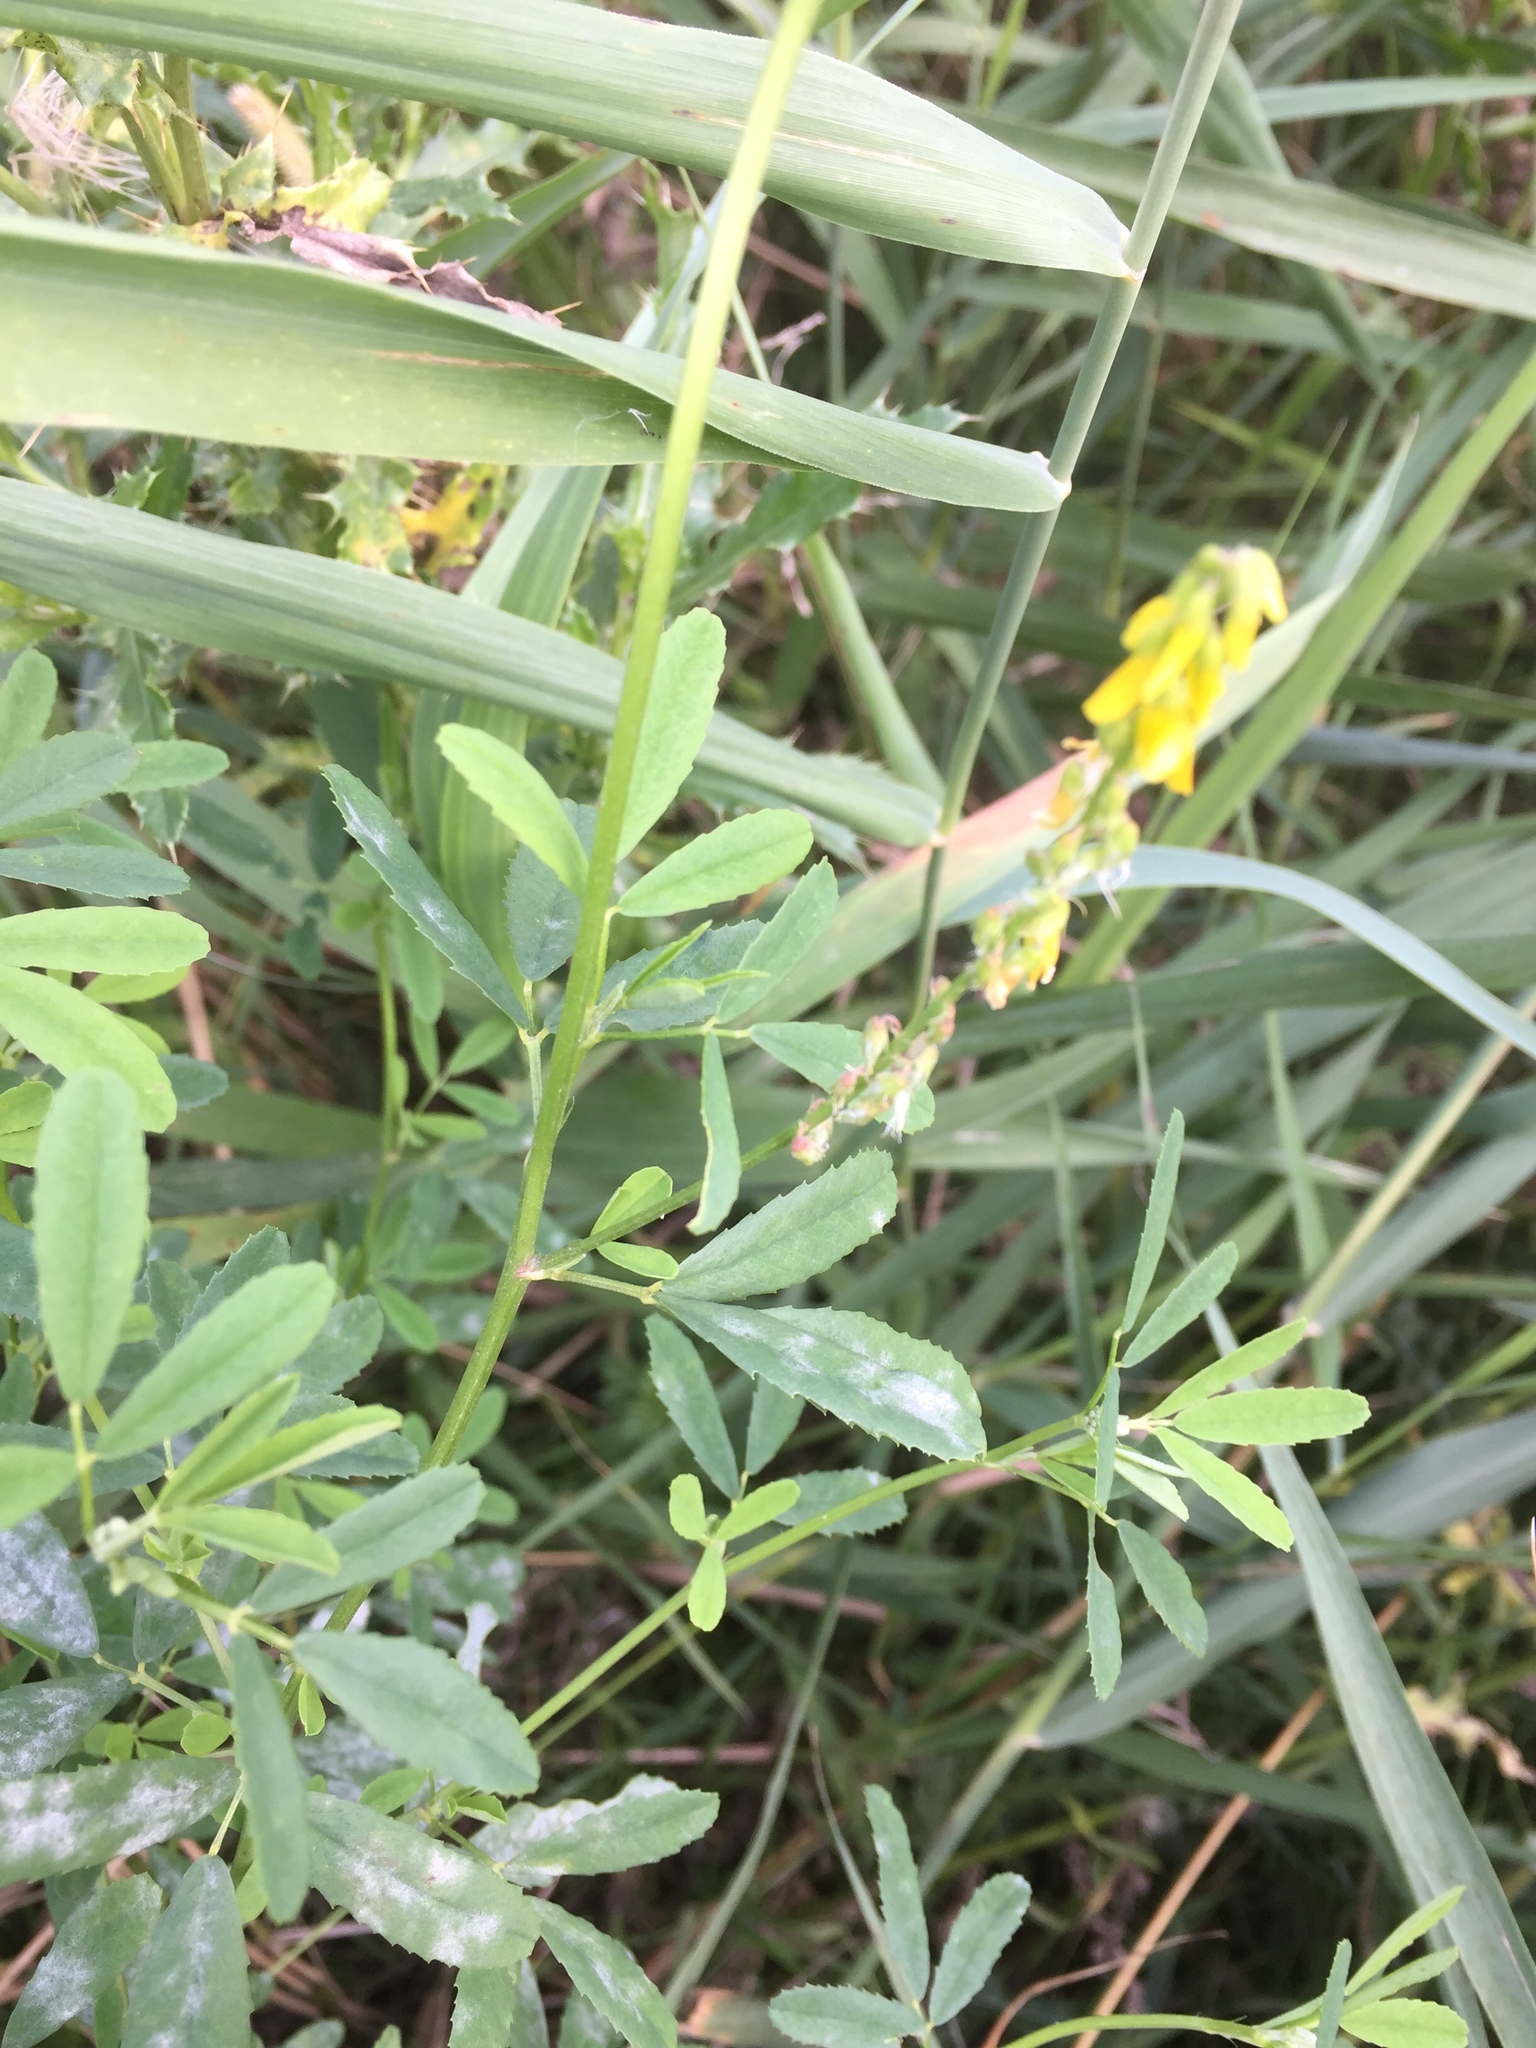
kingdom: Plantae
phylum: Tracheophyta
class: Magnoliopsida
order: Fabales
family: Fabaceae
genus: Melilotus
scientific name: Melilotus officinalis
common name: Sweetclover
